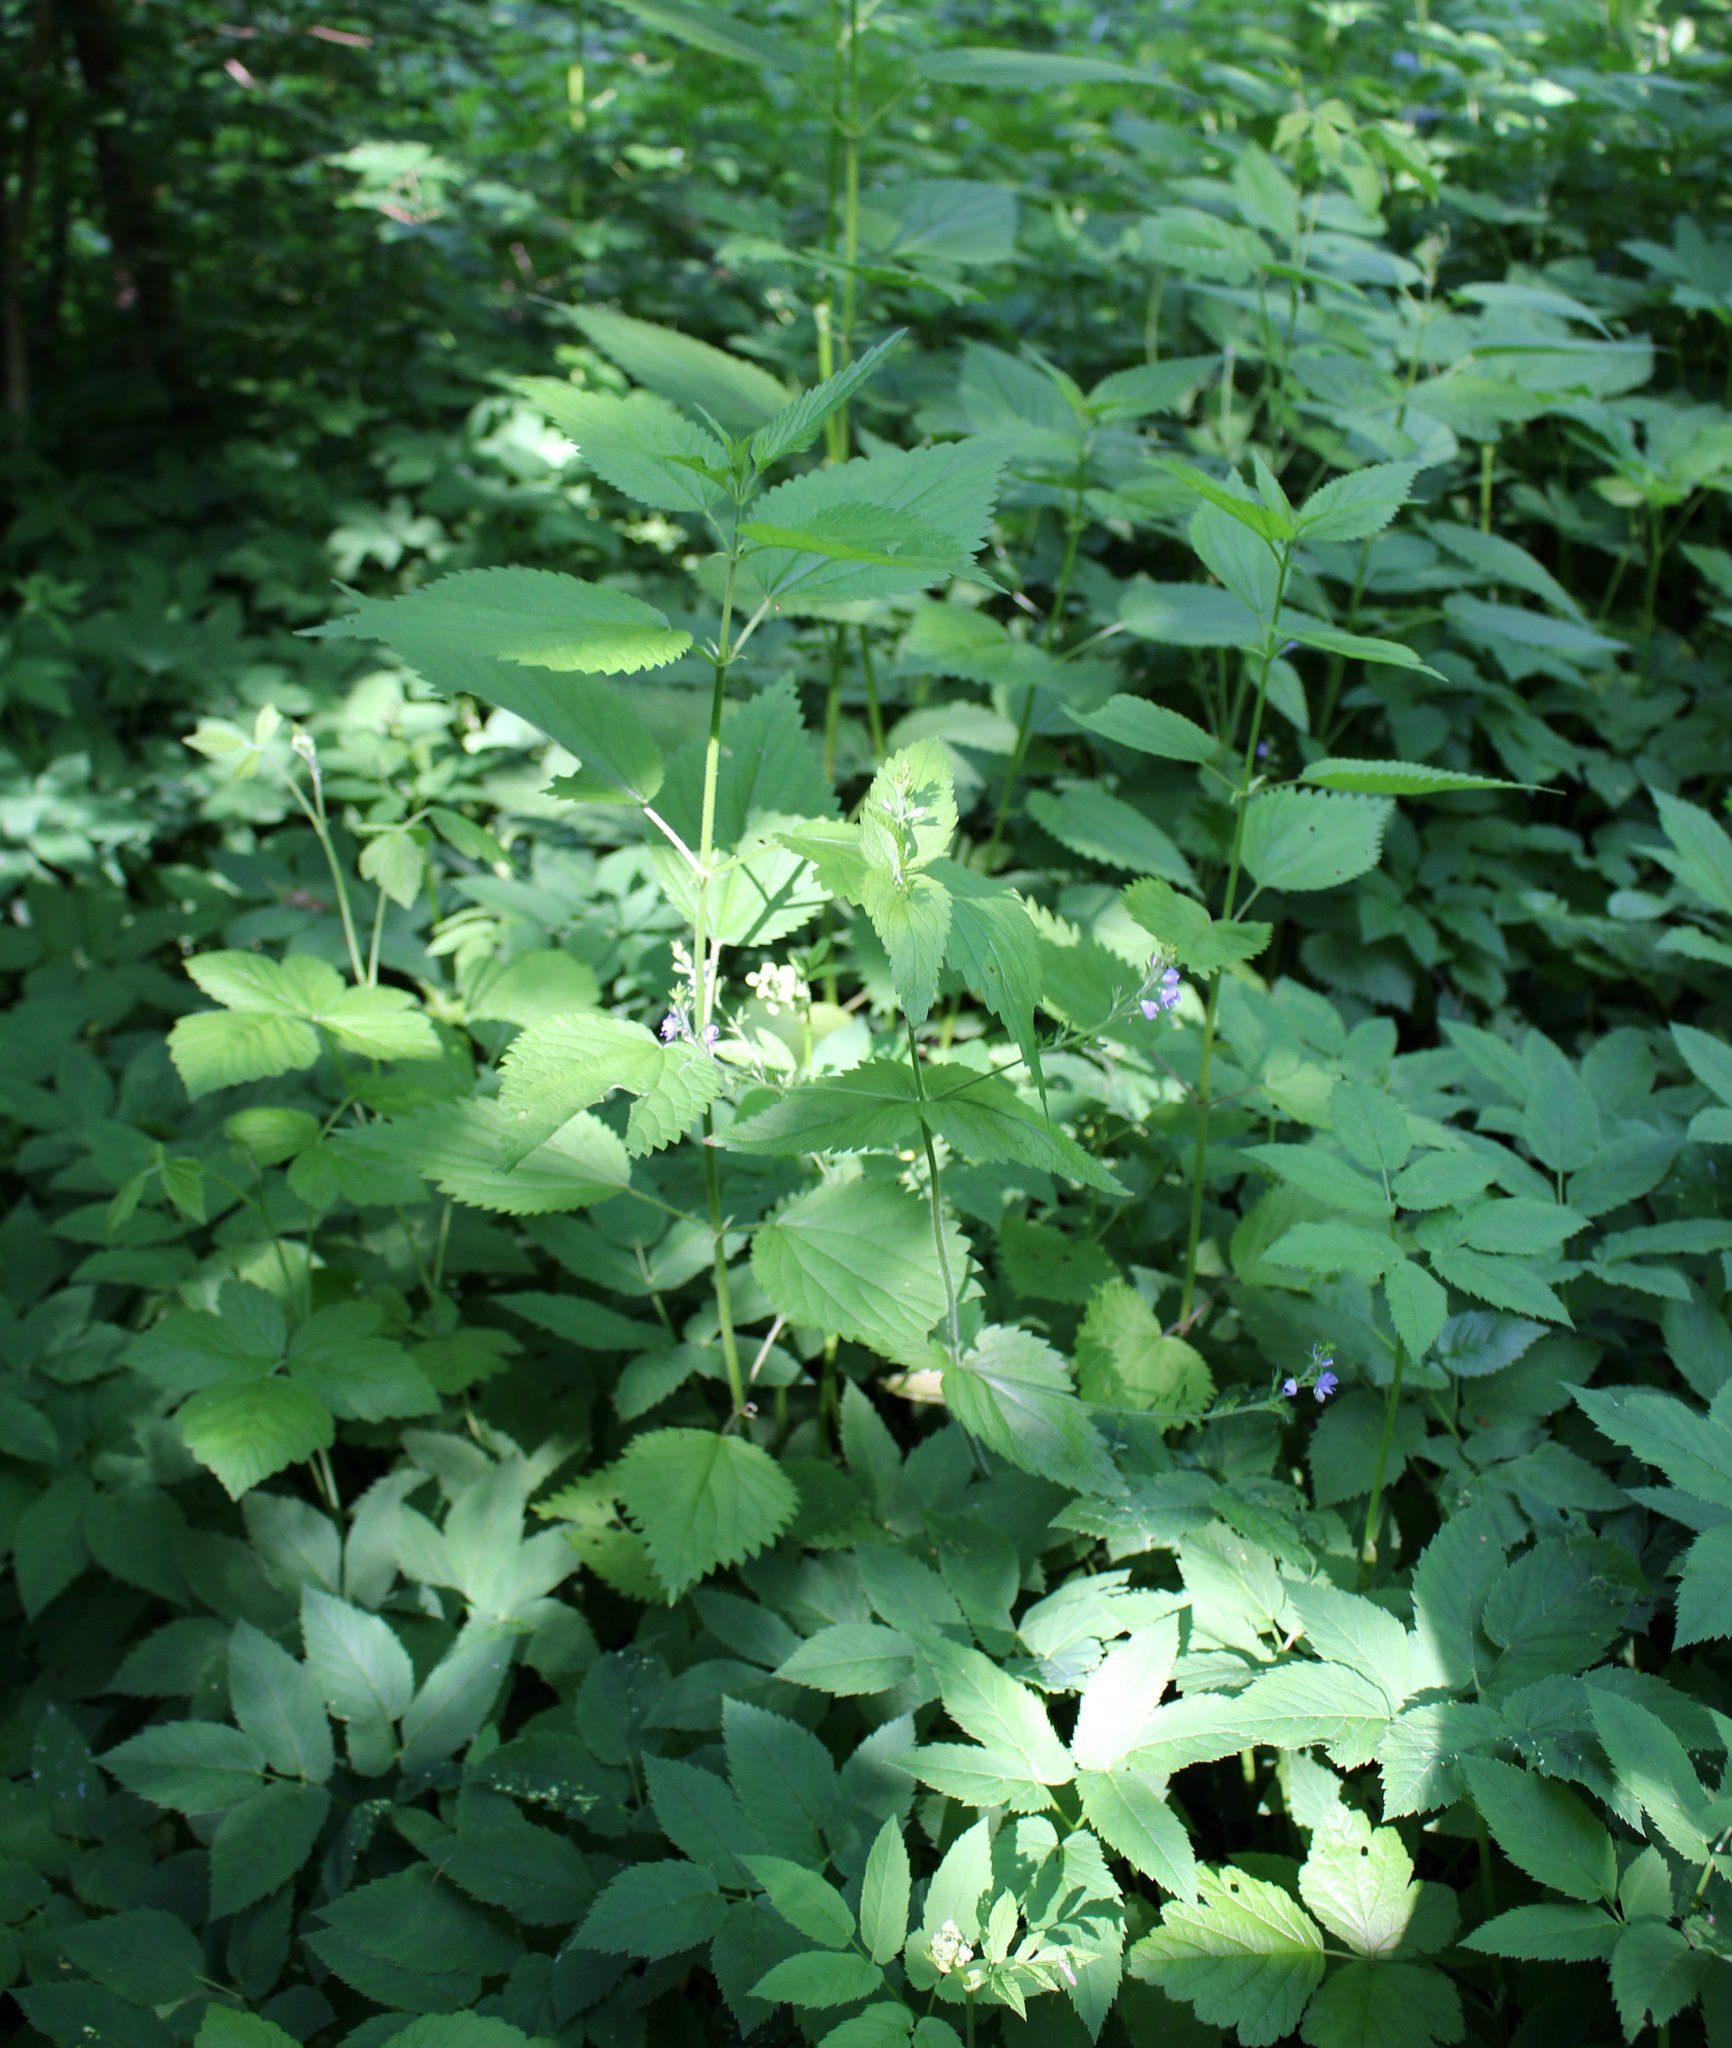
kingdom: Plantae
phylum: Tracheophyta
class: Magnoliopsida
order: Lamiales
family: Plantaginaceae
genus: Veronica
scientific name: Veronica magna
